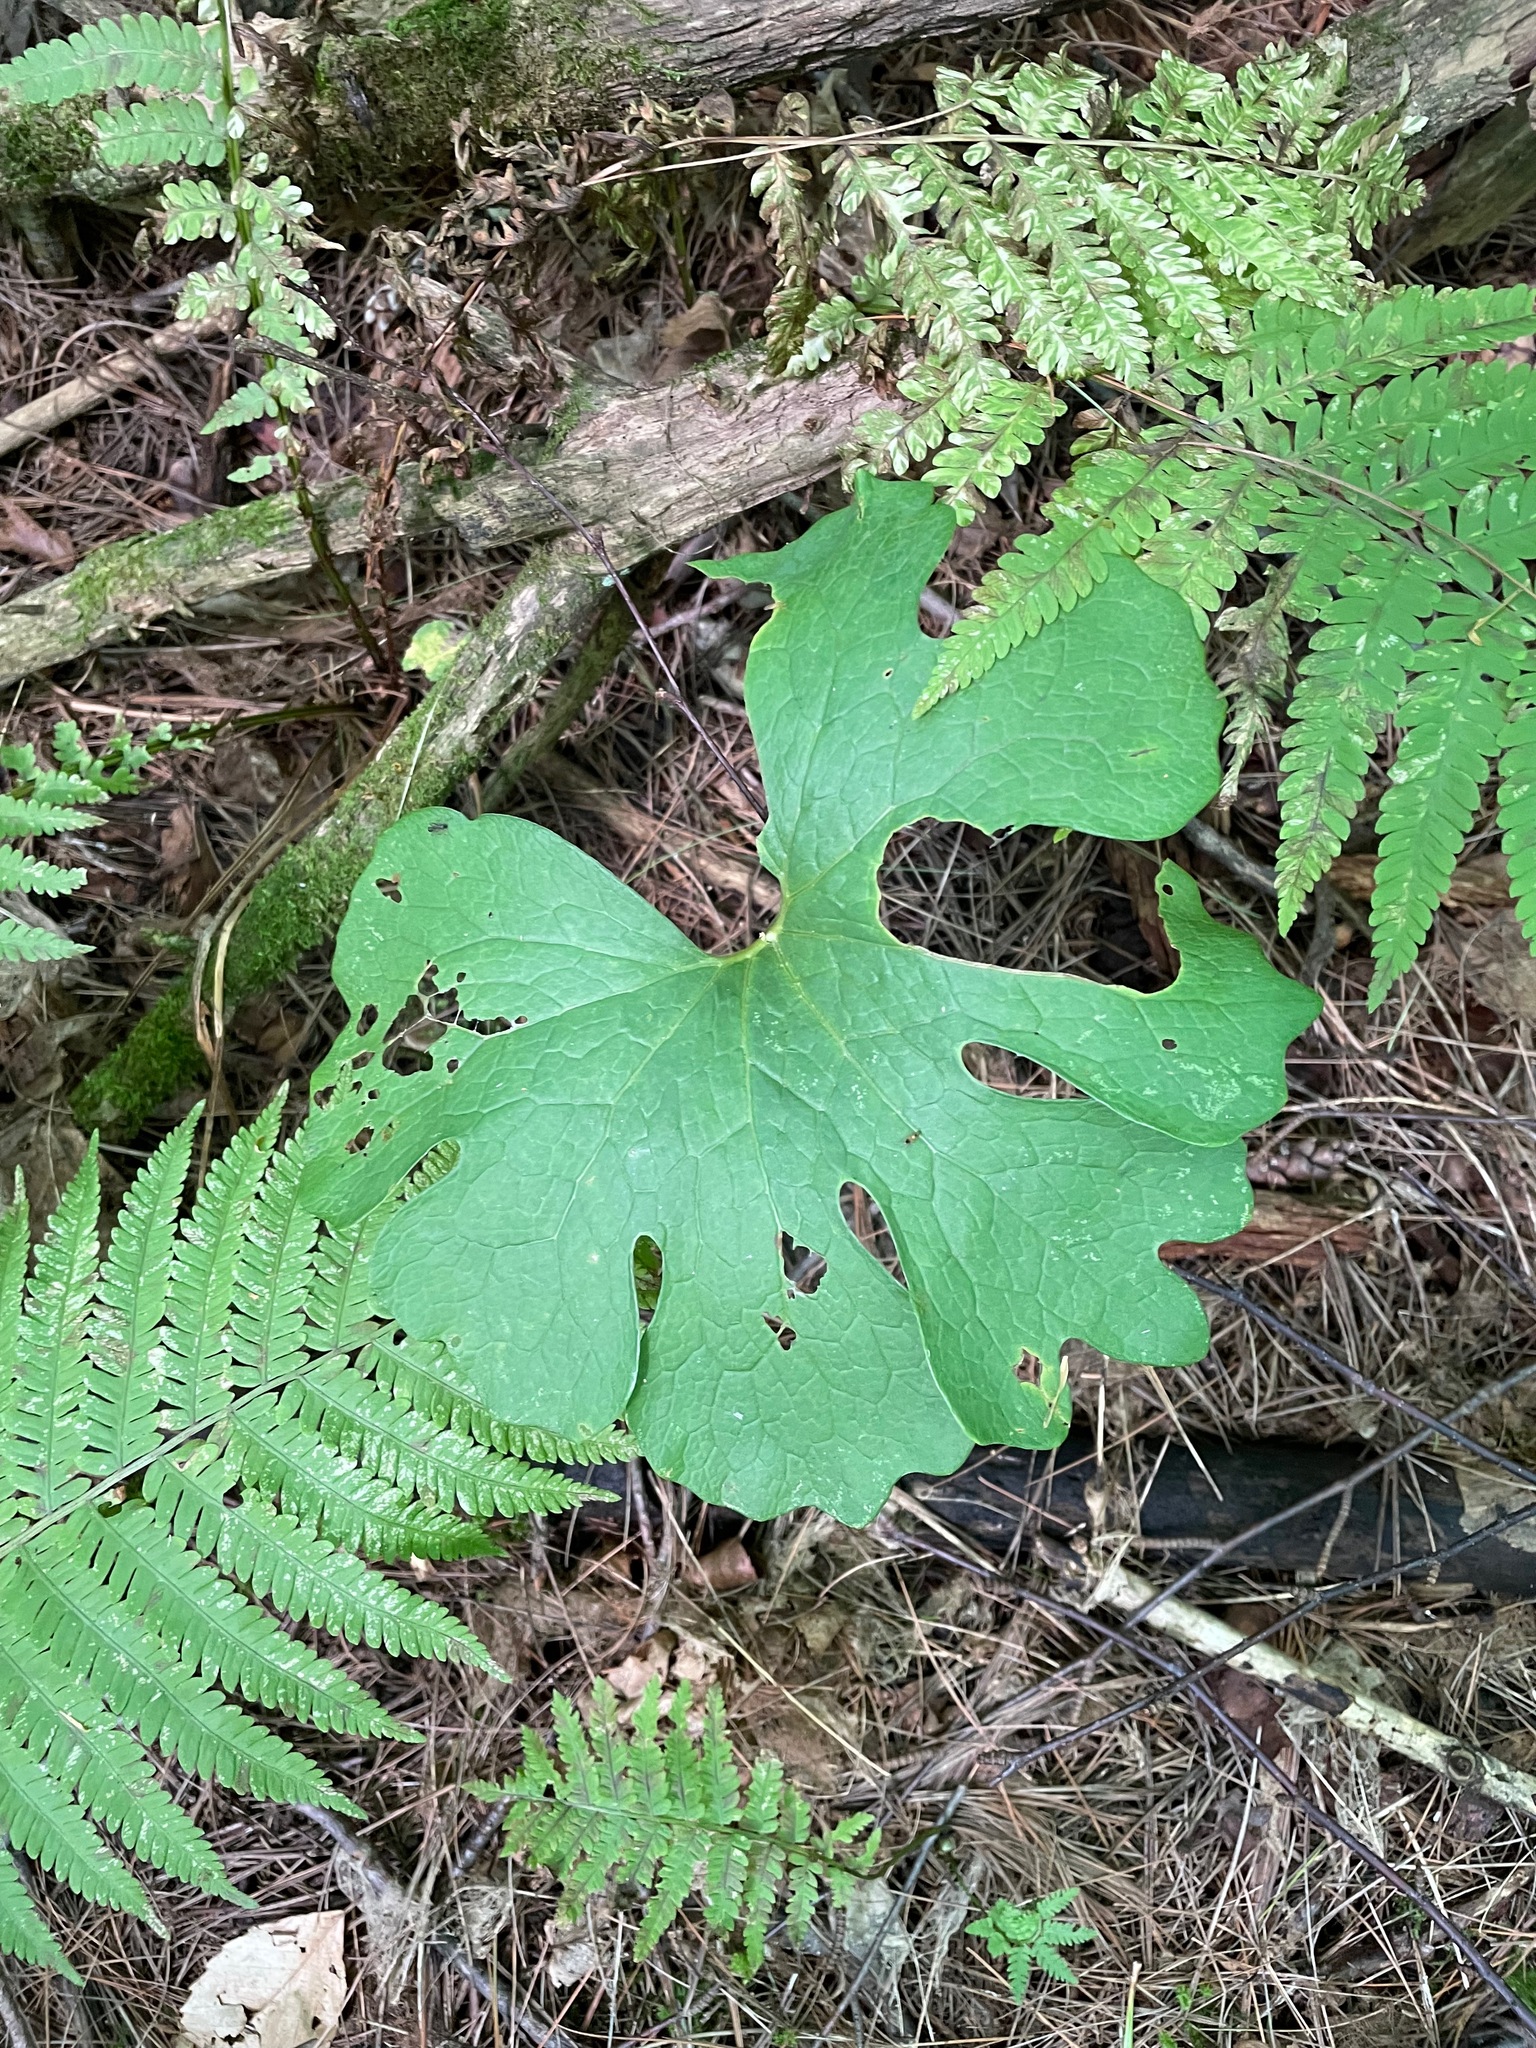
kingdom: Plantae
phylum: Tracheophyta
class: Magnoliopsida
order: Ranunculales
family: Papaveraceae
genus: Sanguinaria
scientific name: Sanguinaria canadensis
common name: Bloodroot
